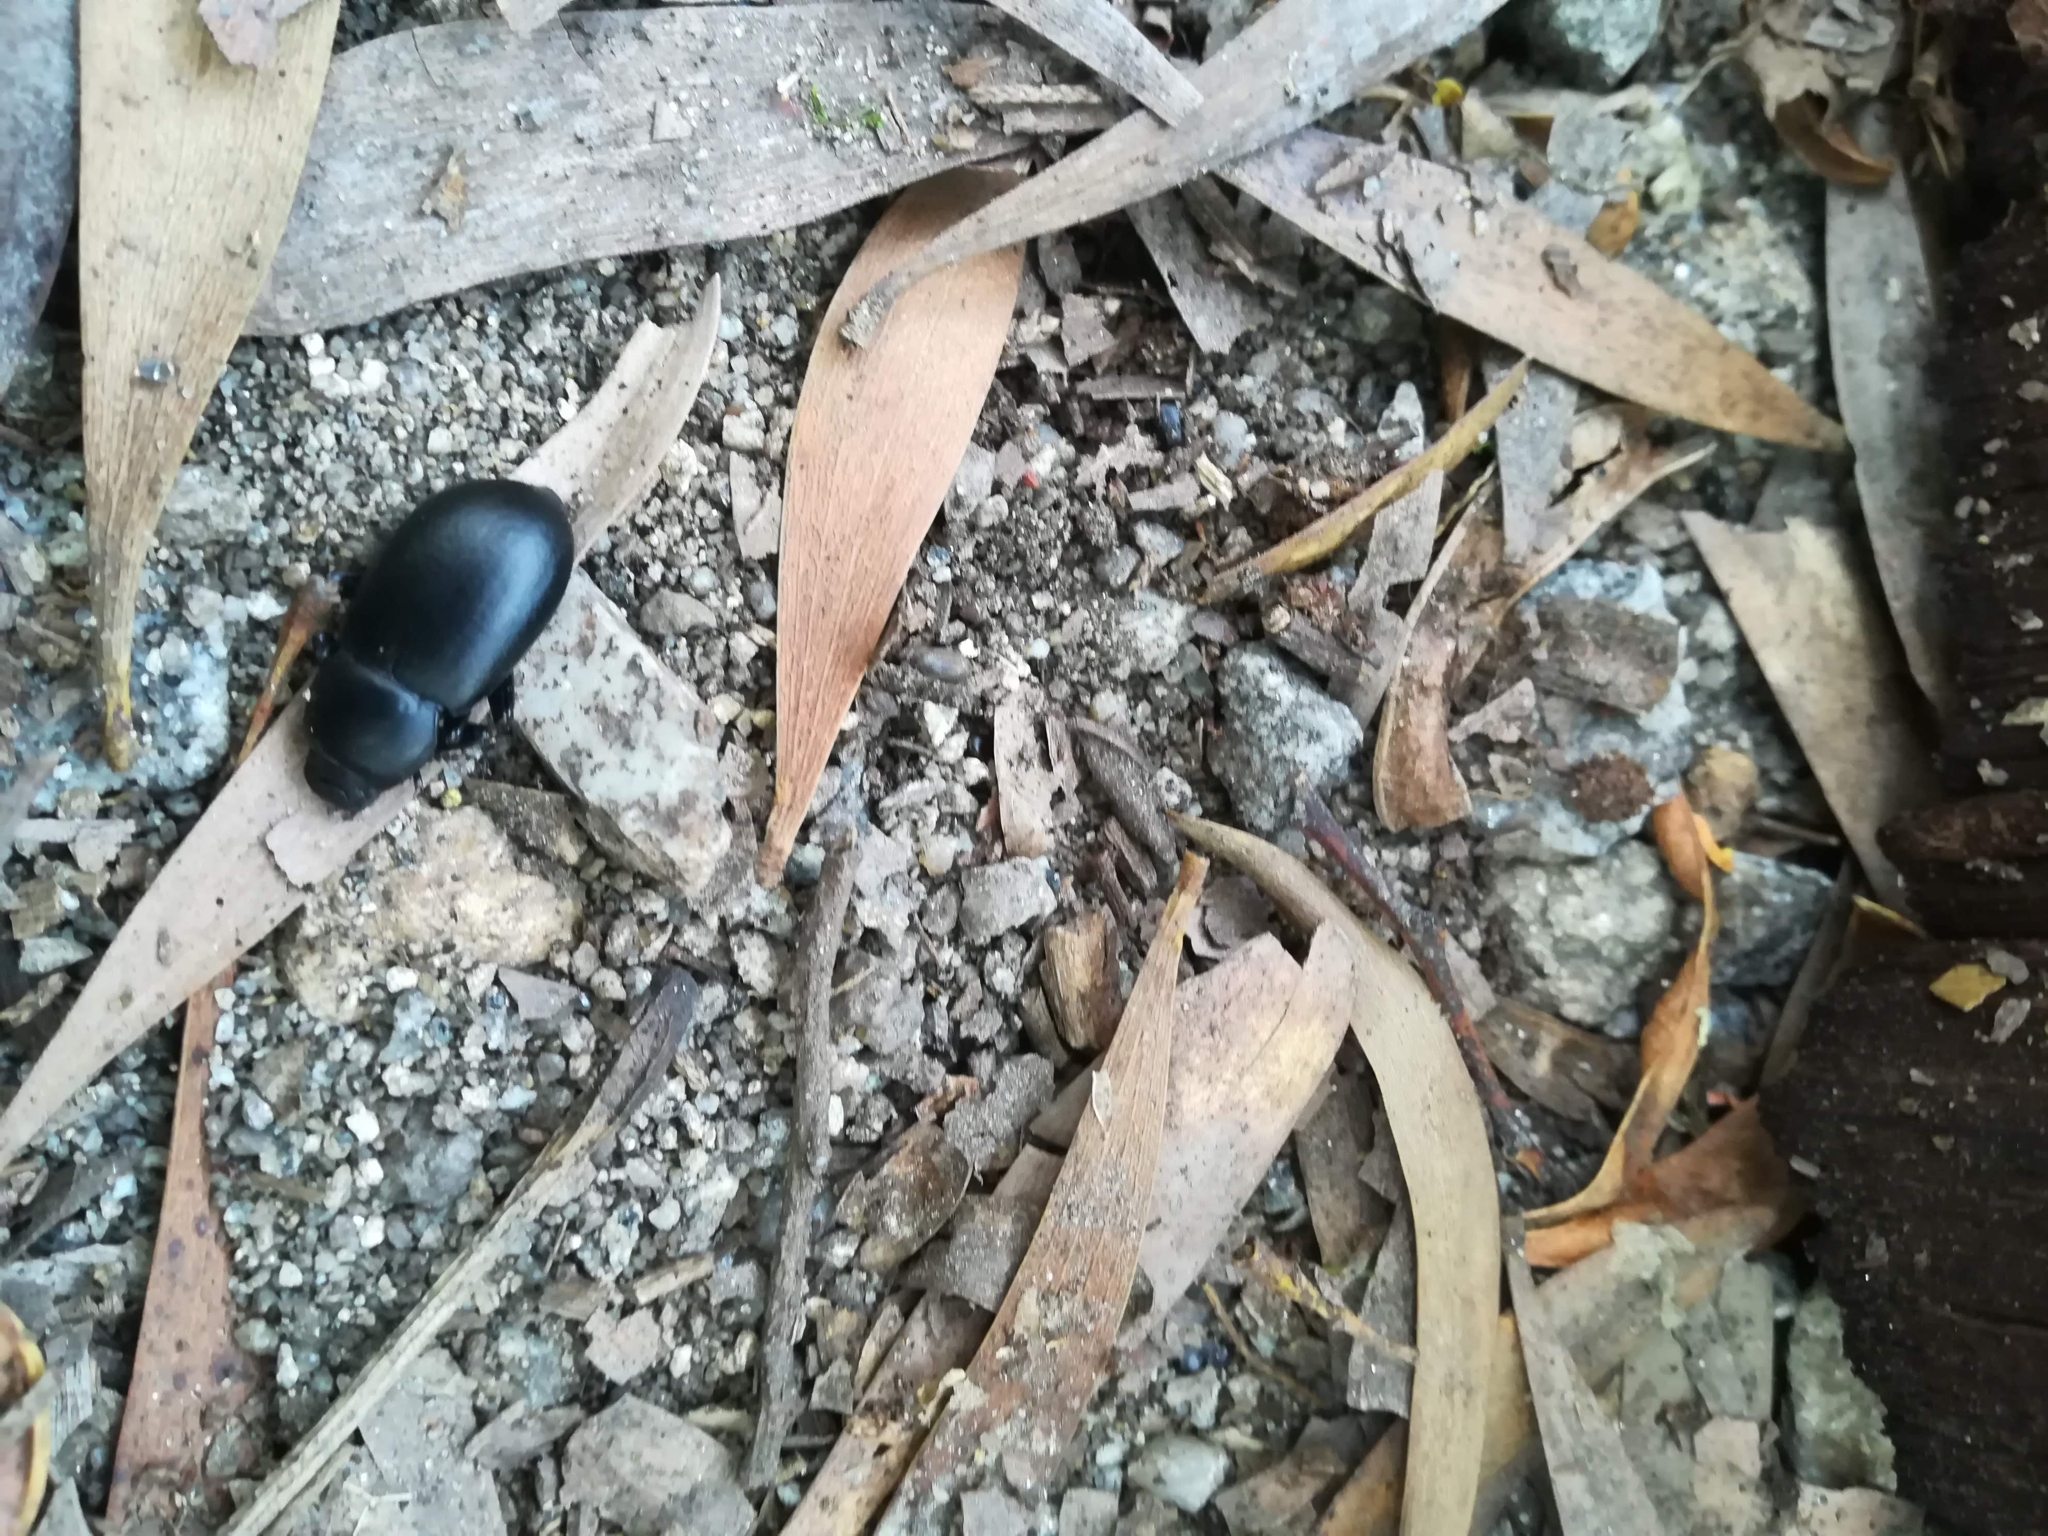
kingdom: Animalia
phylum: Arthropoda
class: Insecta
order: Coleoptera
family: Tenebrionidae
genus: Coelometopus
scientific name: Coelometopus clypeatus
